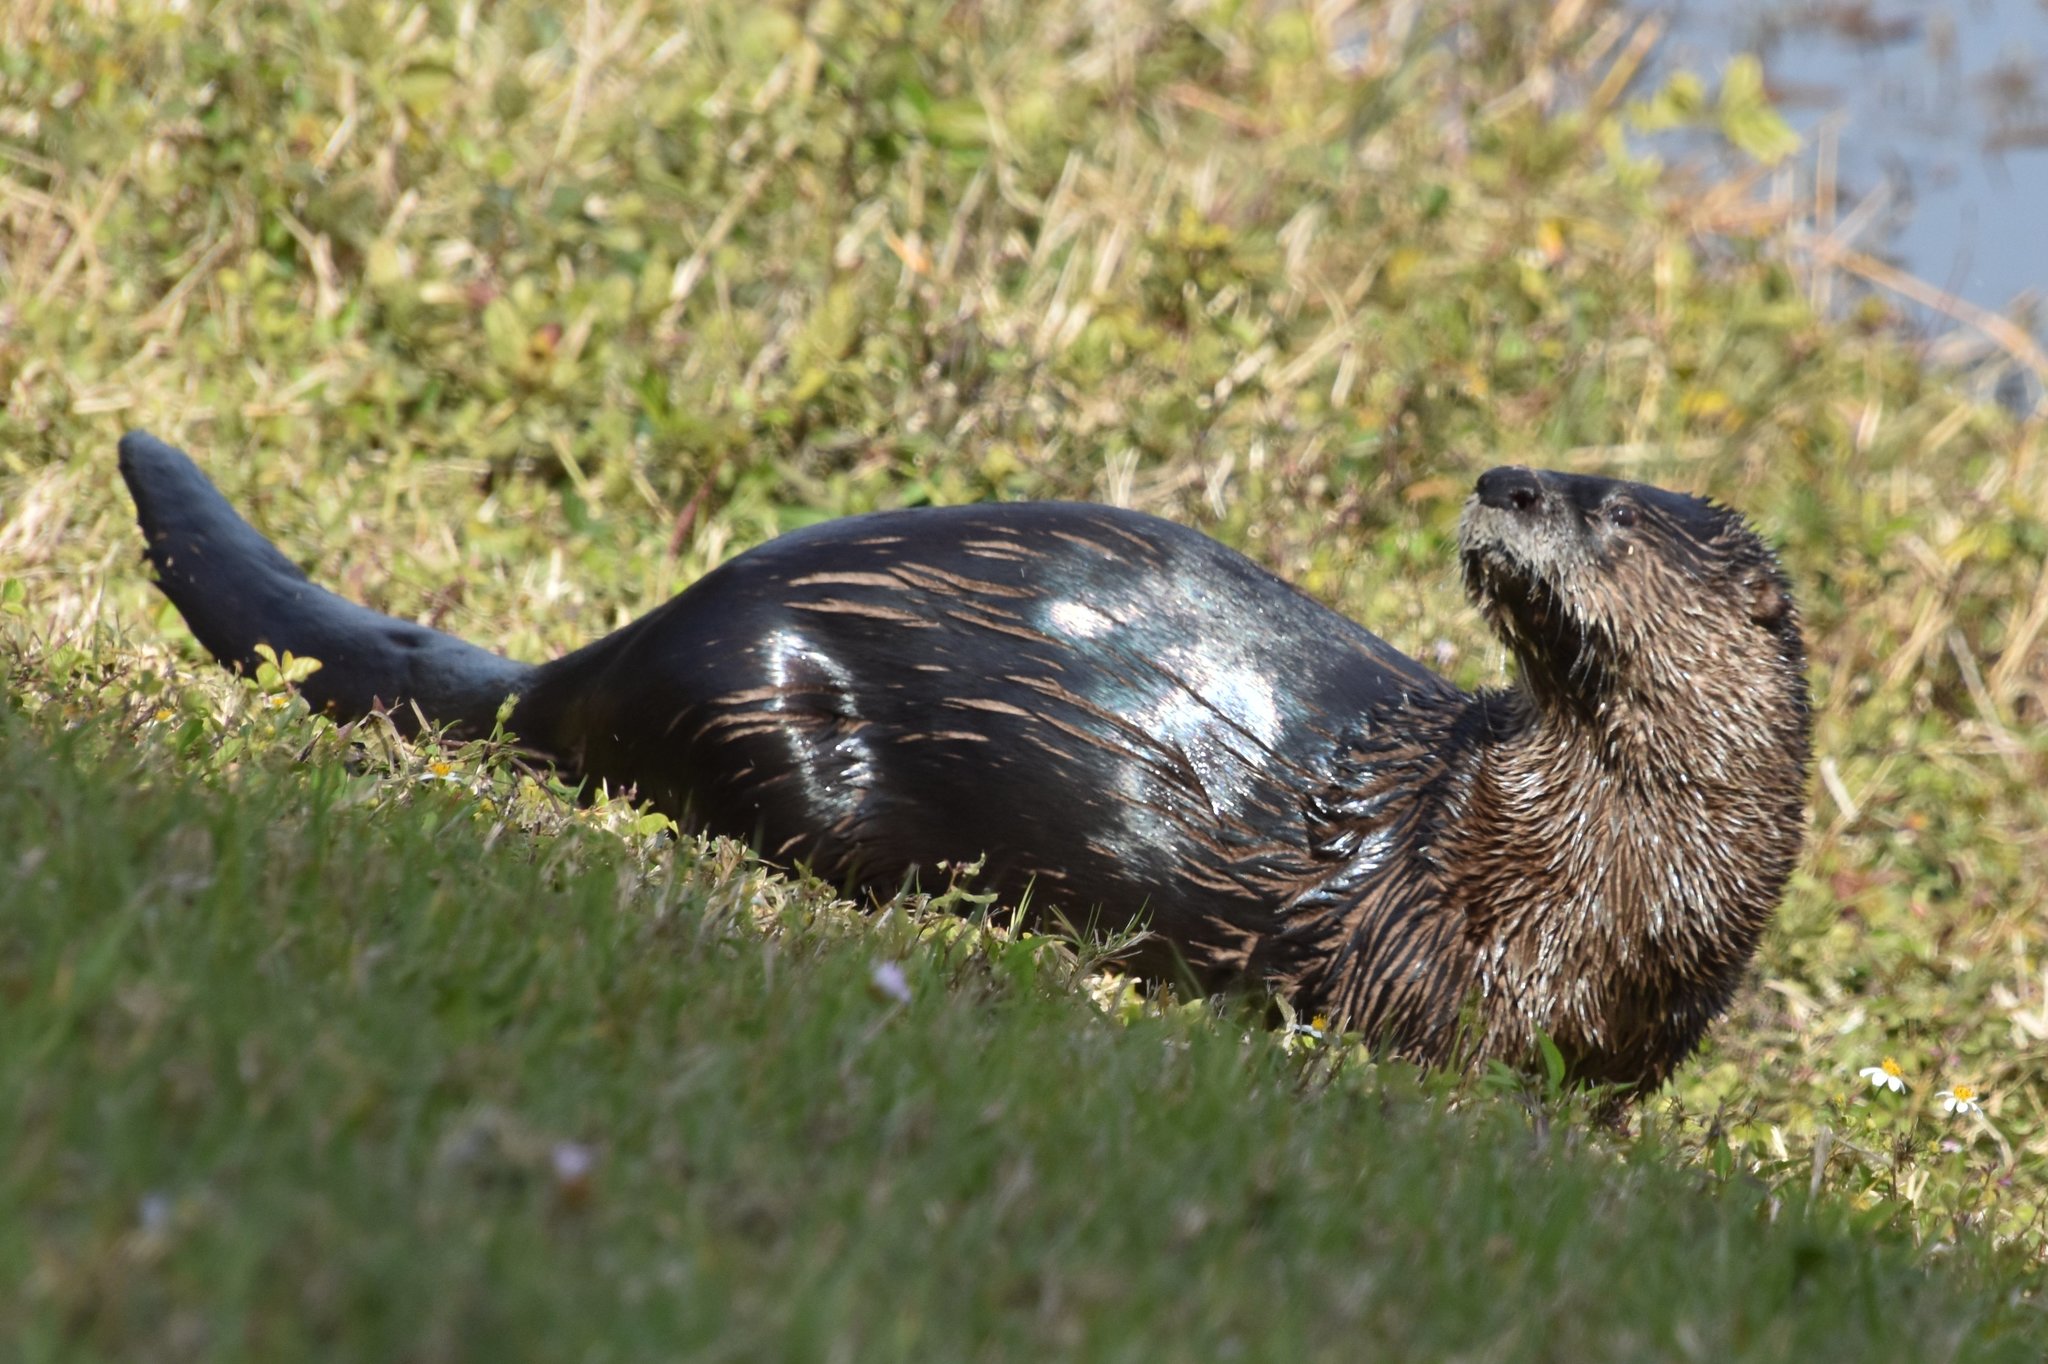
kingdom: Animalia
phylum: Chordata
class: Mammalia
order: Carnivora
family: Mustelidae
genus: Lontra
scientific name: Lontra canadensis
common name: North american river otter
